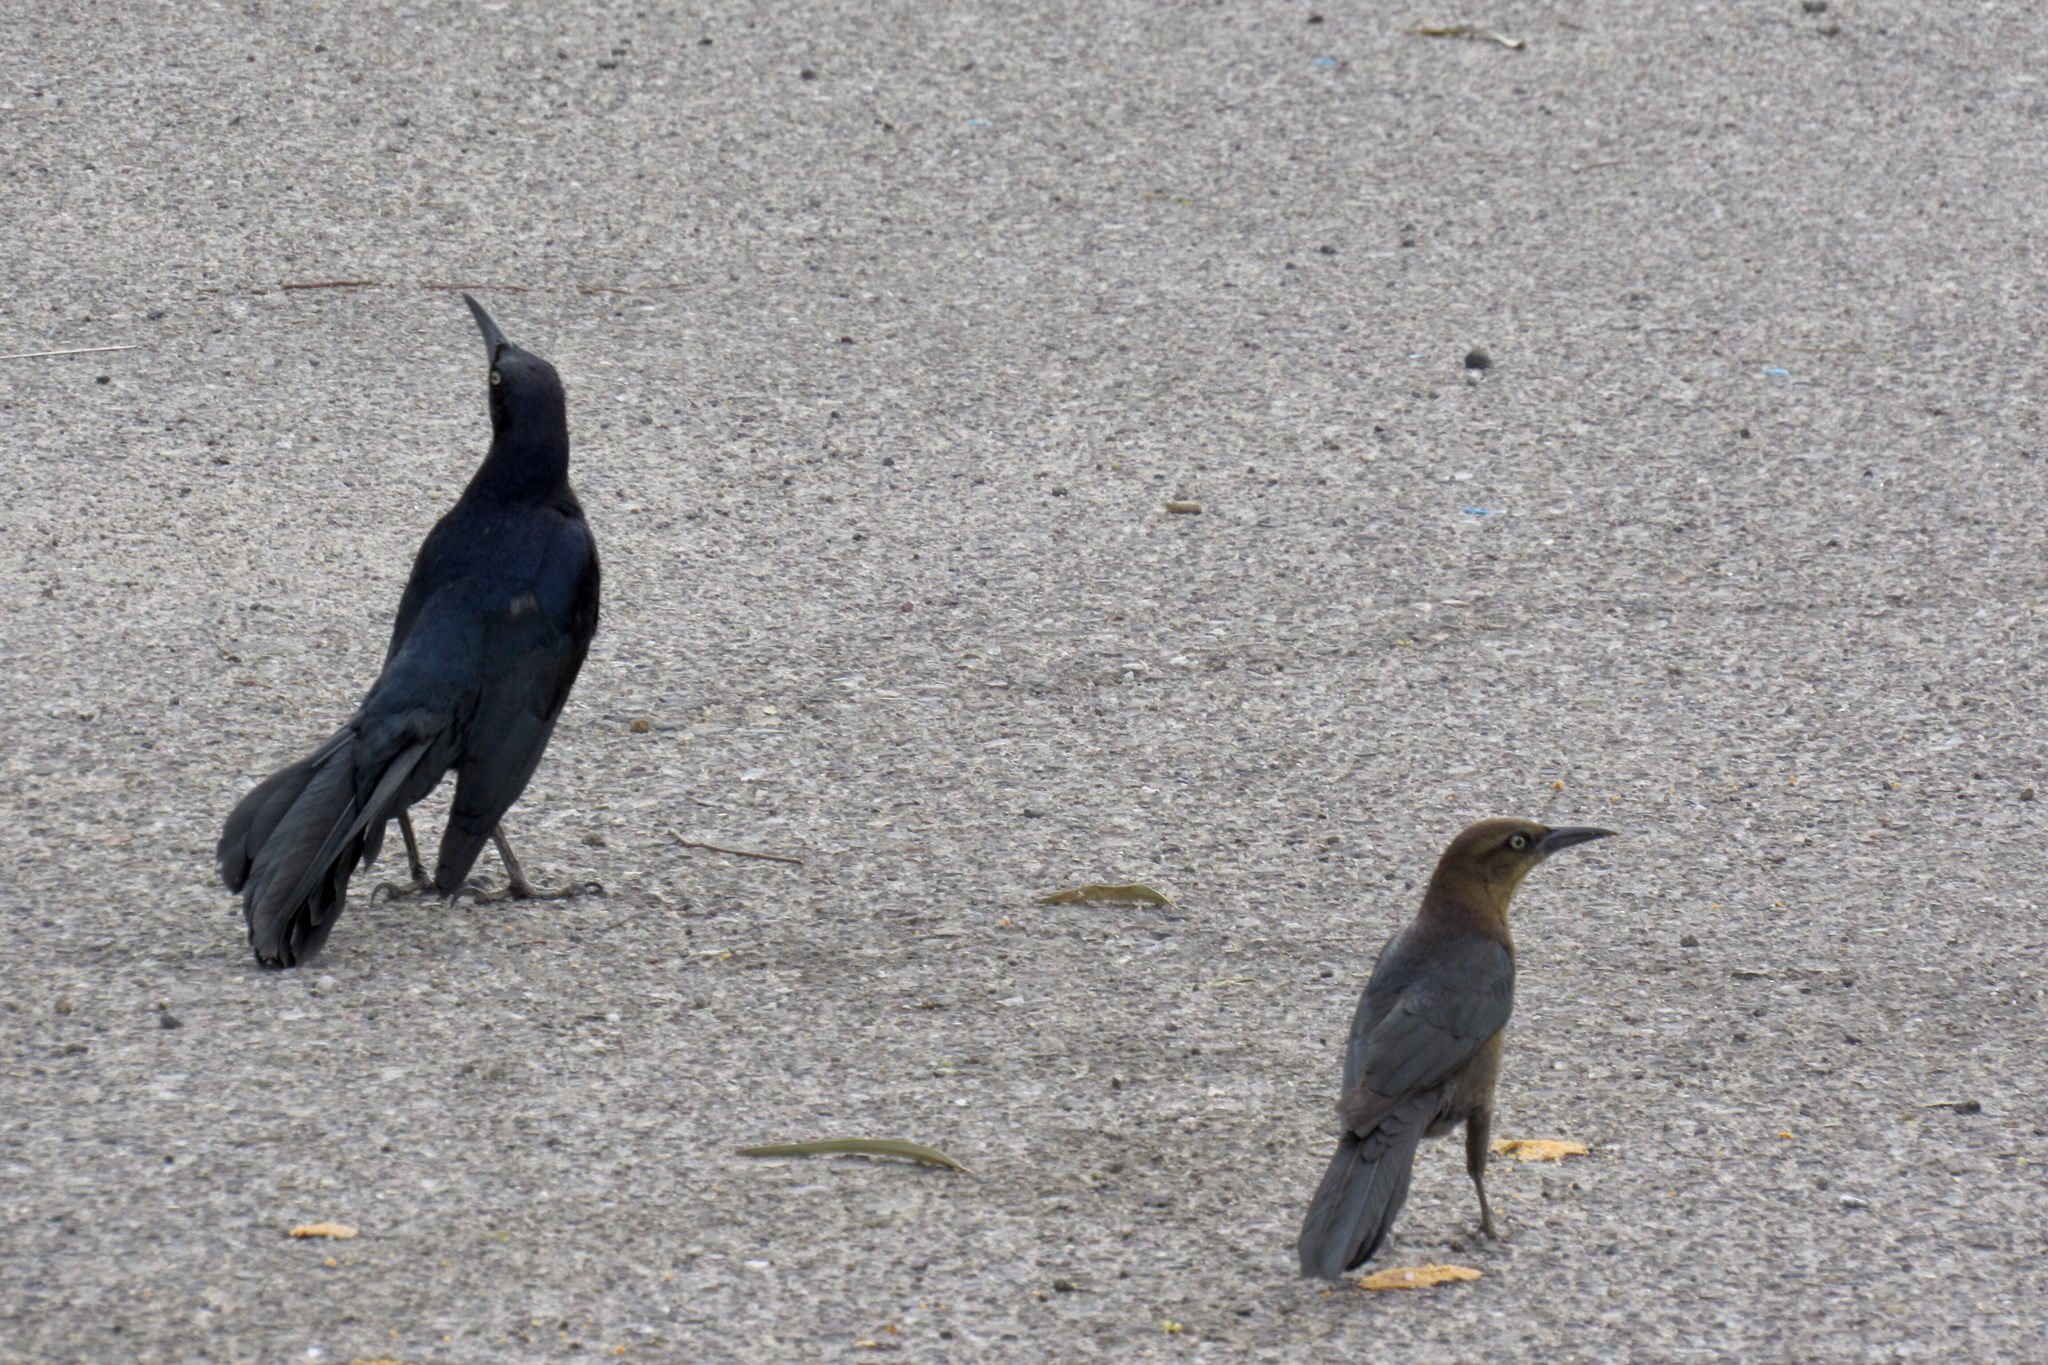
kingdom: Animalia
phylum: Chordata
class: Aves
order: Passeriformes
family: Icteridae
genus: Quiscalus
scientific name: Quiscalus mexicanus
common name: Great-tailed grackle
